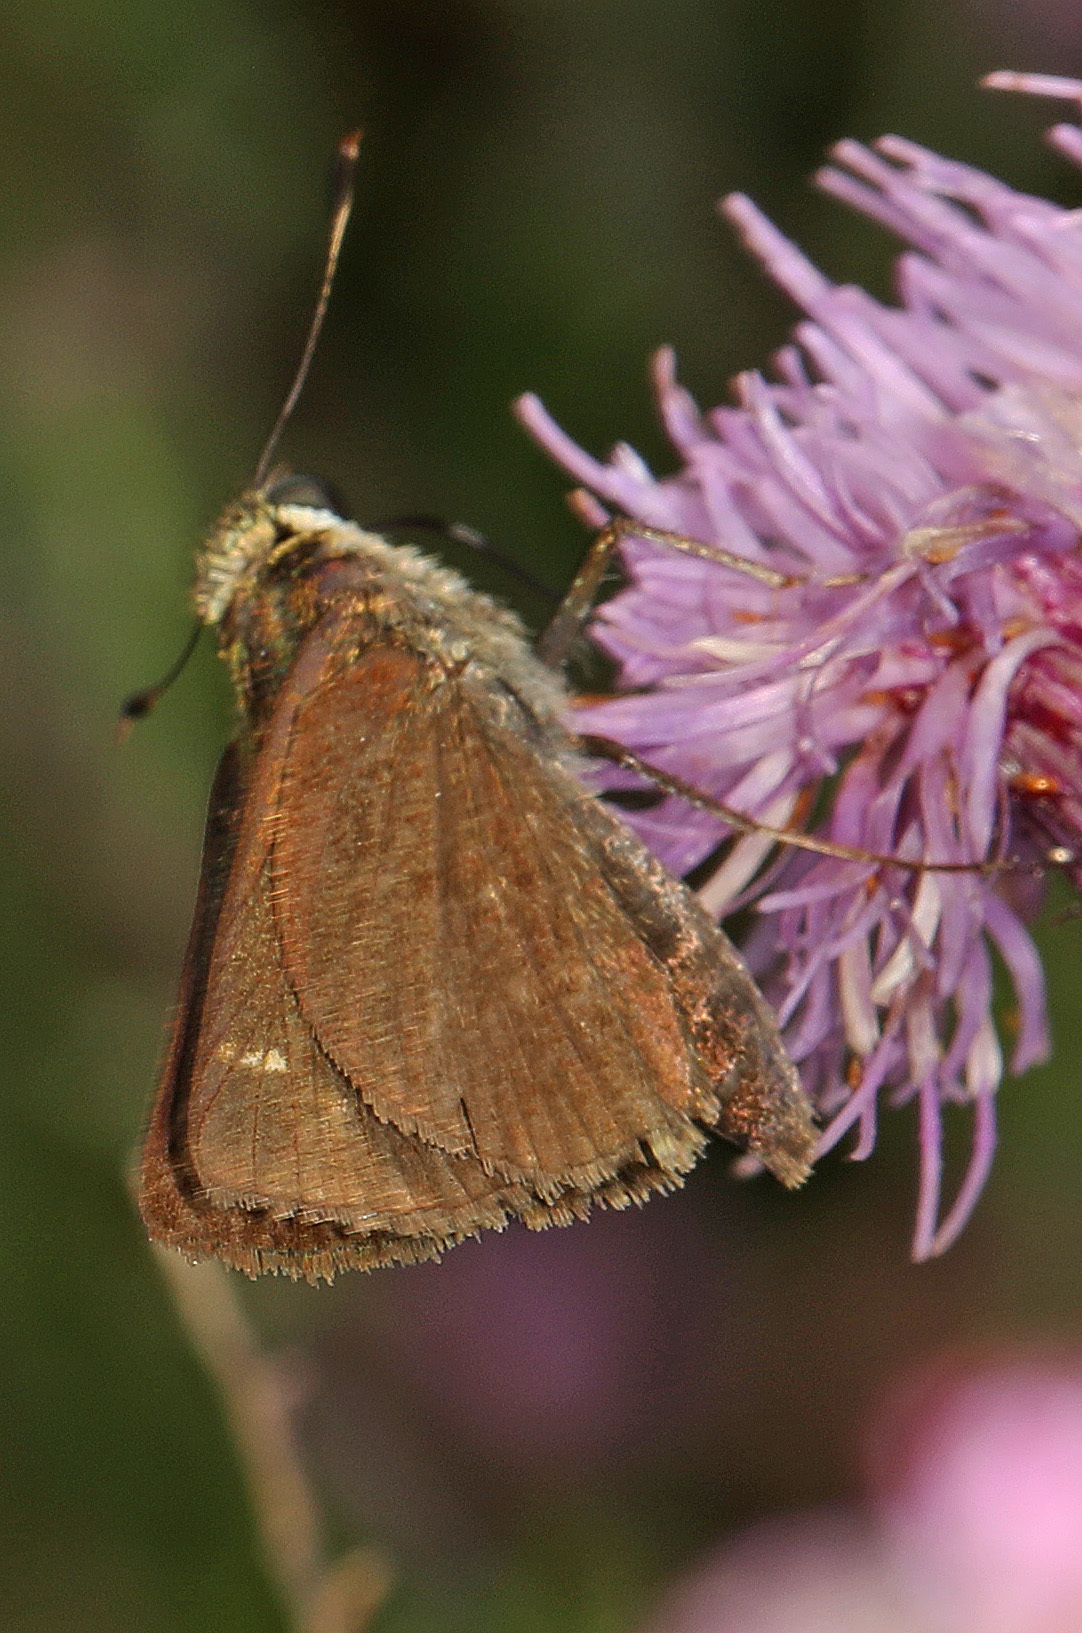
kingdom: Animalia
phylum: Arthropoda
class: Insecta
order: Lepidoptera
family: Hesperiidae
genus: Vernia
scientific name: Vernia verna
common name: Little glassywing
